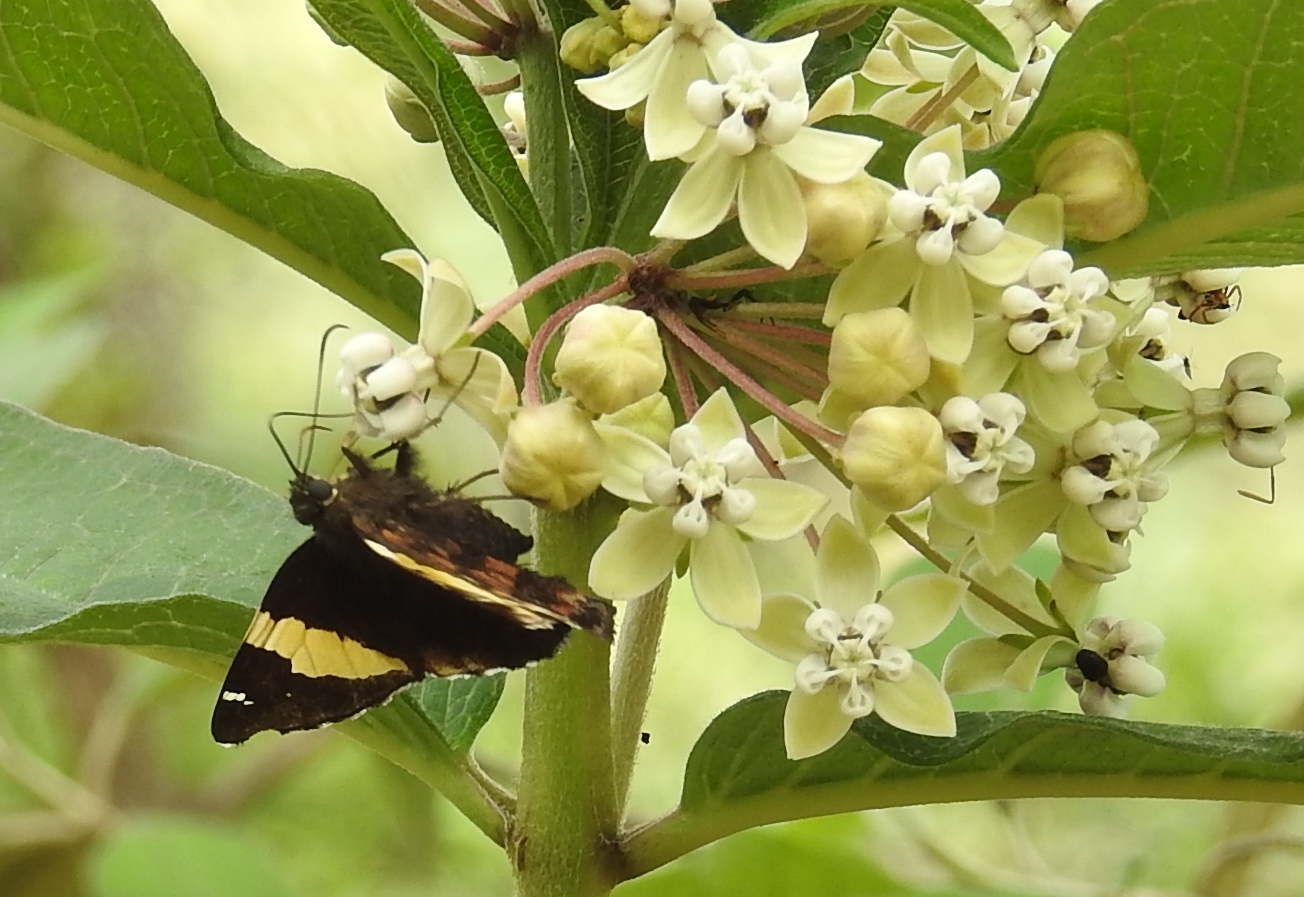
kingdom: Animalia
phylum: Arthropoda
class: Arachnida
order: Scorpiones
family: Bothriuridae
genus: Telegonus
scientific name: Telegonus cellus
